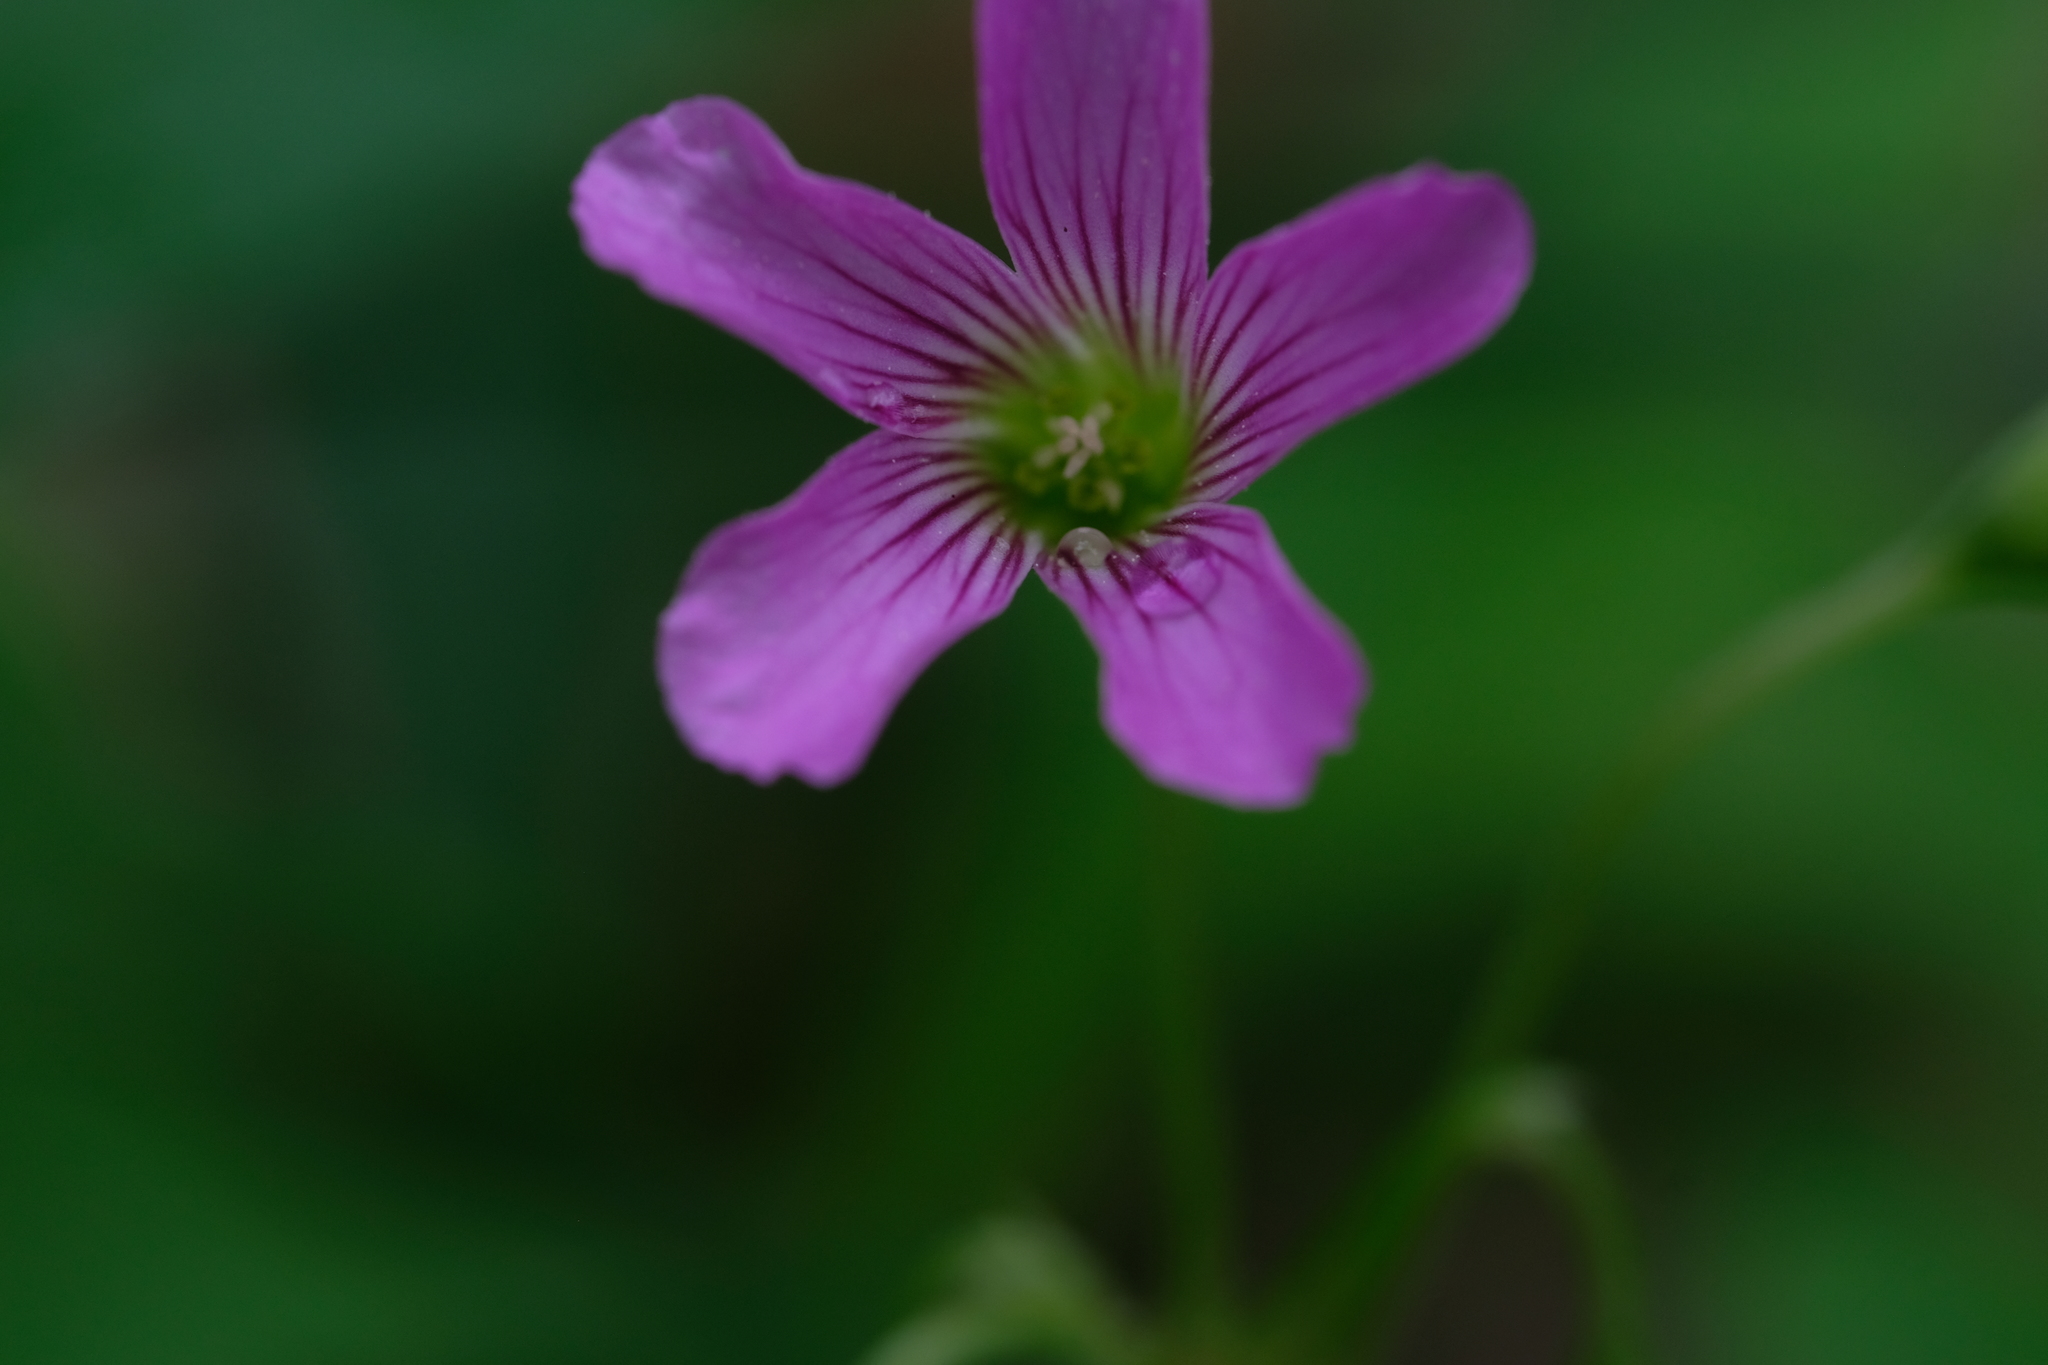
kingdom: Plantae
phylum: Tracheophyta
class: Magnoliopsida
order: Oxalidales
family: Oxalidaceae
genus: Oxalis
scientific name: Oxalis debilis
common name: Large-flowered pink-sorrel
